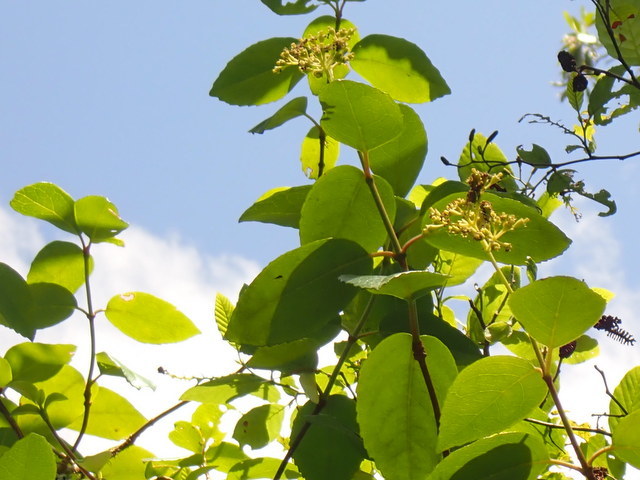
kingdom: Plantae
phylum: Tracheophyta
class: Magnoliopsida
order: Cornales
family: Hydrangeaceae
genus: Hydrangea
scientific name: Hydrangea barbara
